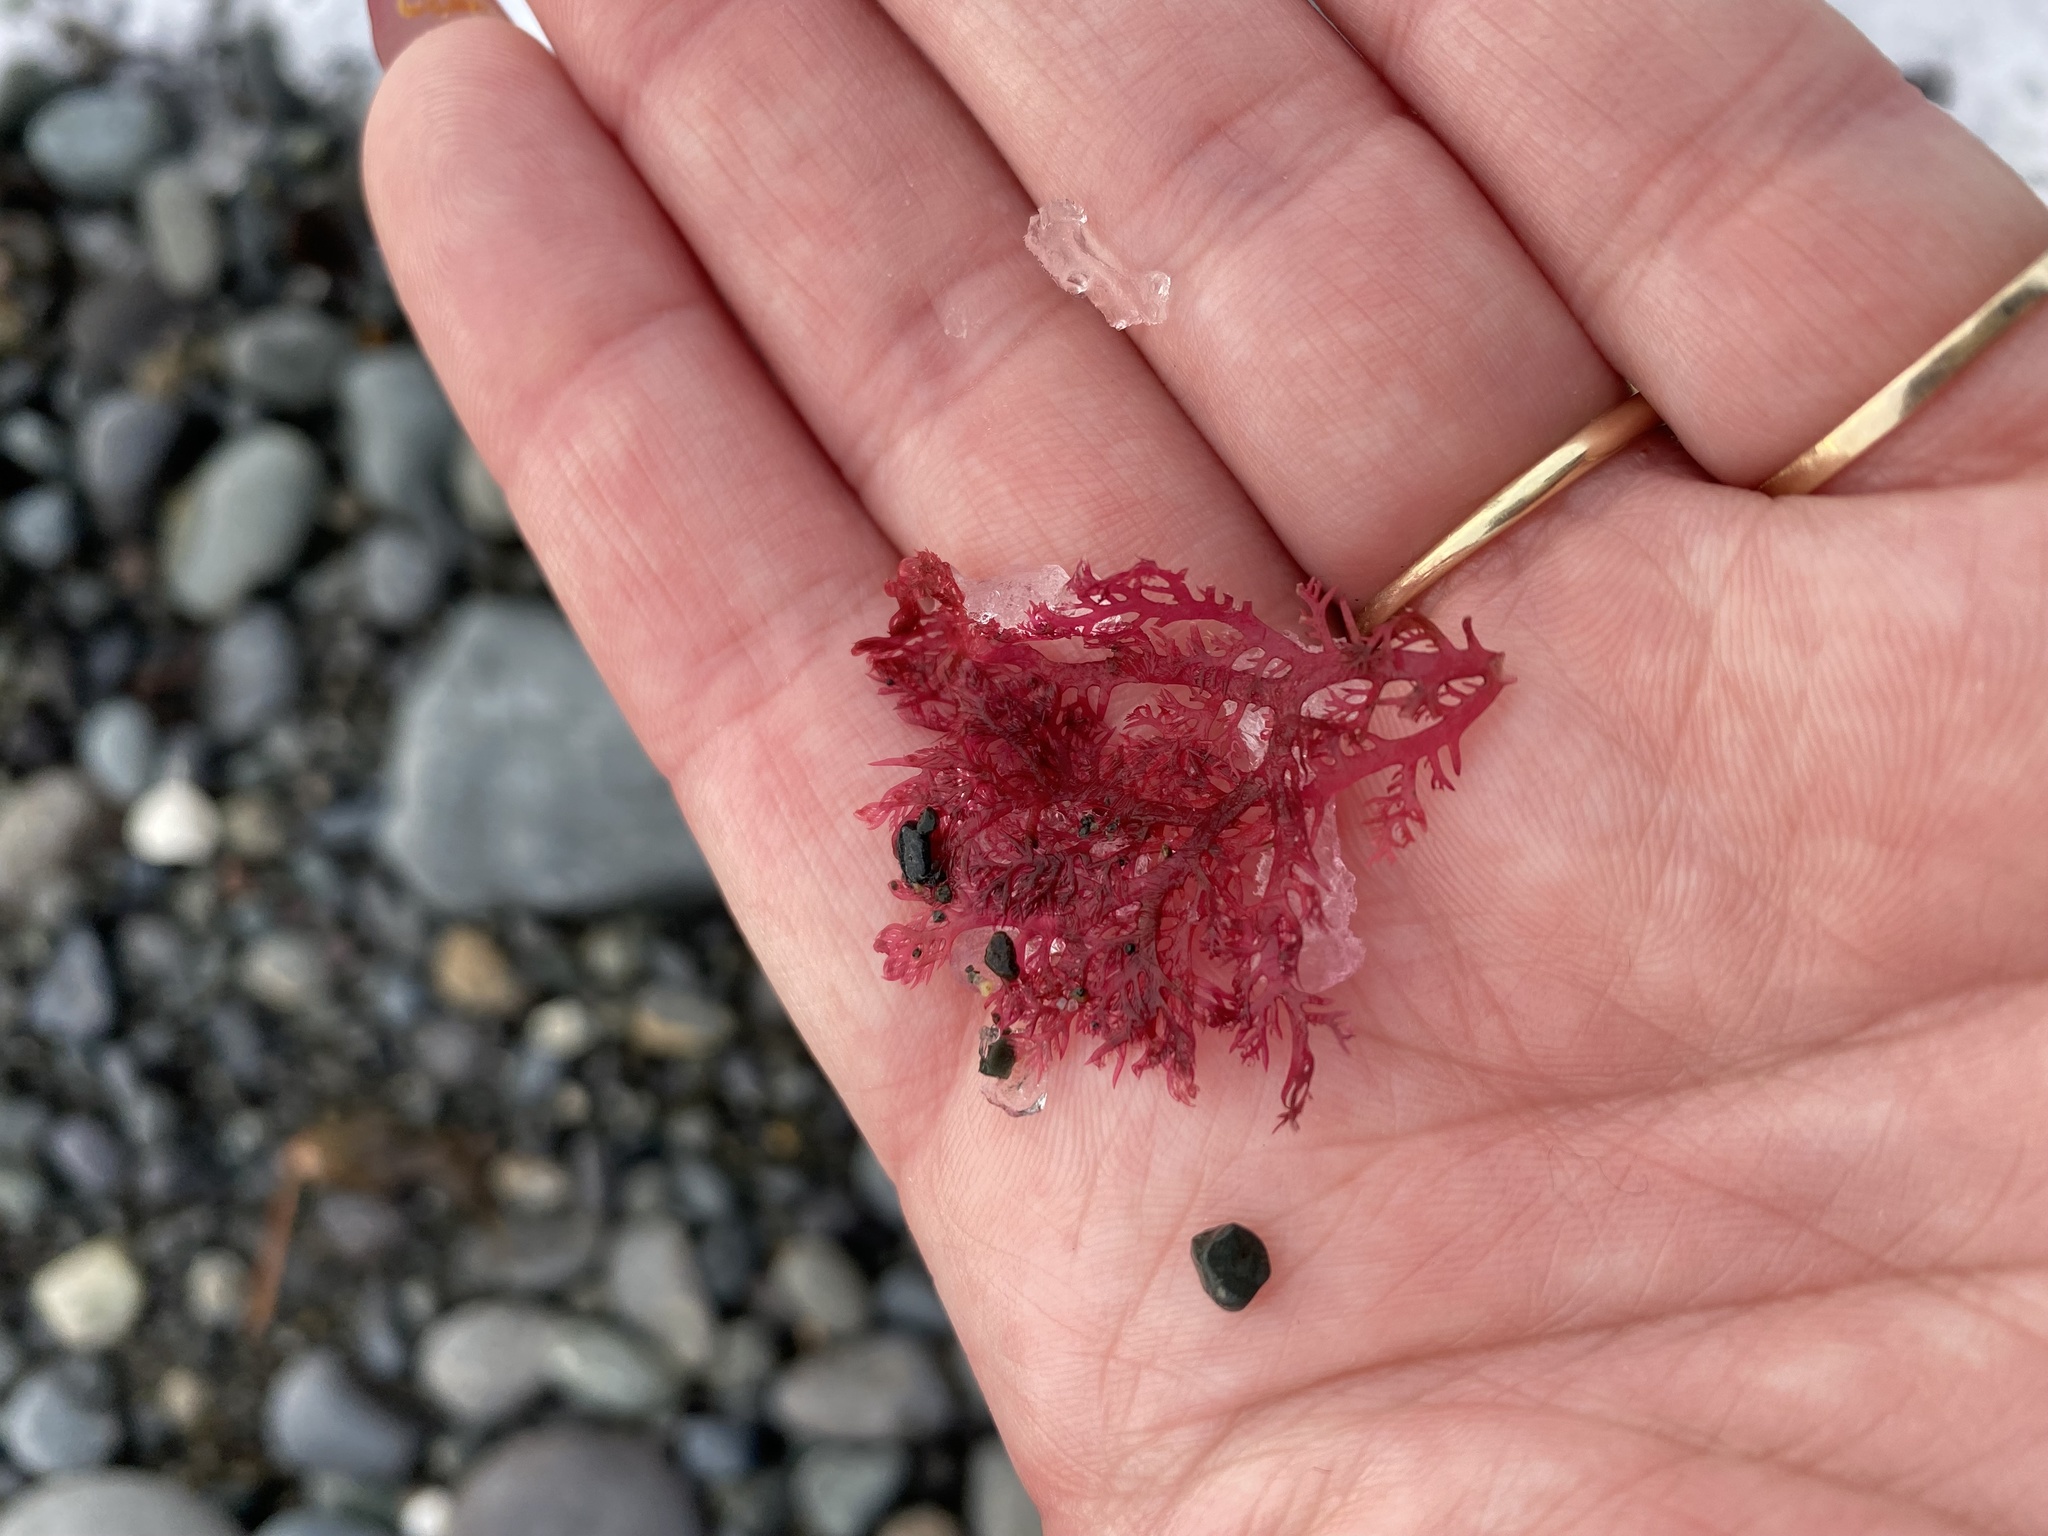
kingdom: Plantae
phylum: Rhodophyta
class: Florideophyceae
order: Plocamiales
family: Plocamiaceae
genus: Plocamium
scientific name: Plocamium cartilagineum
